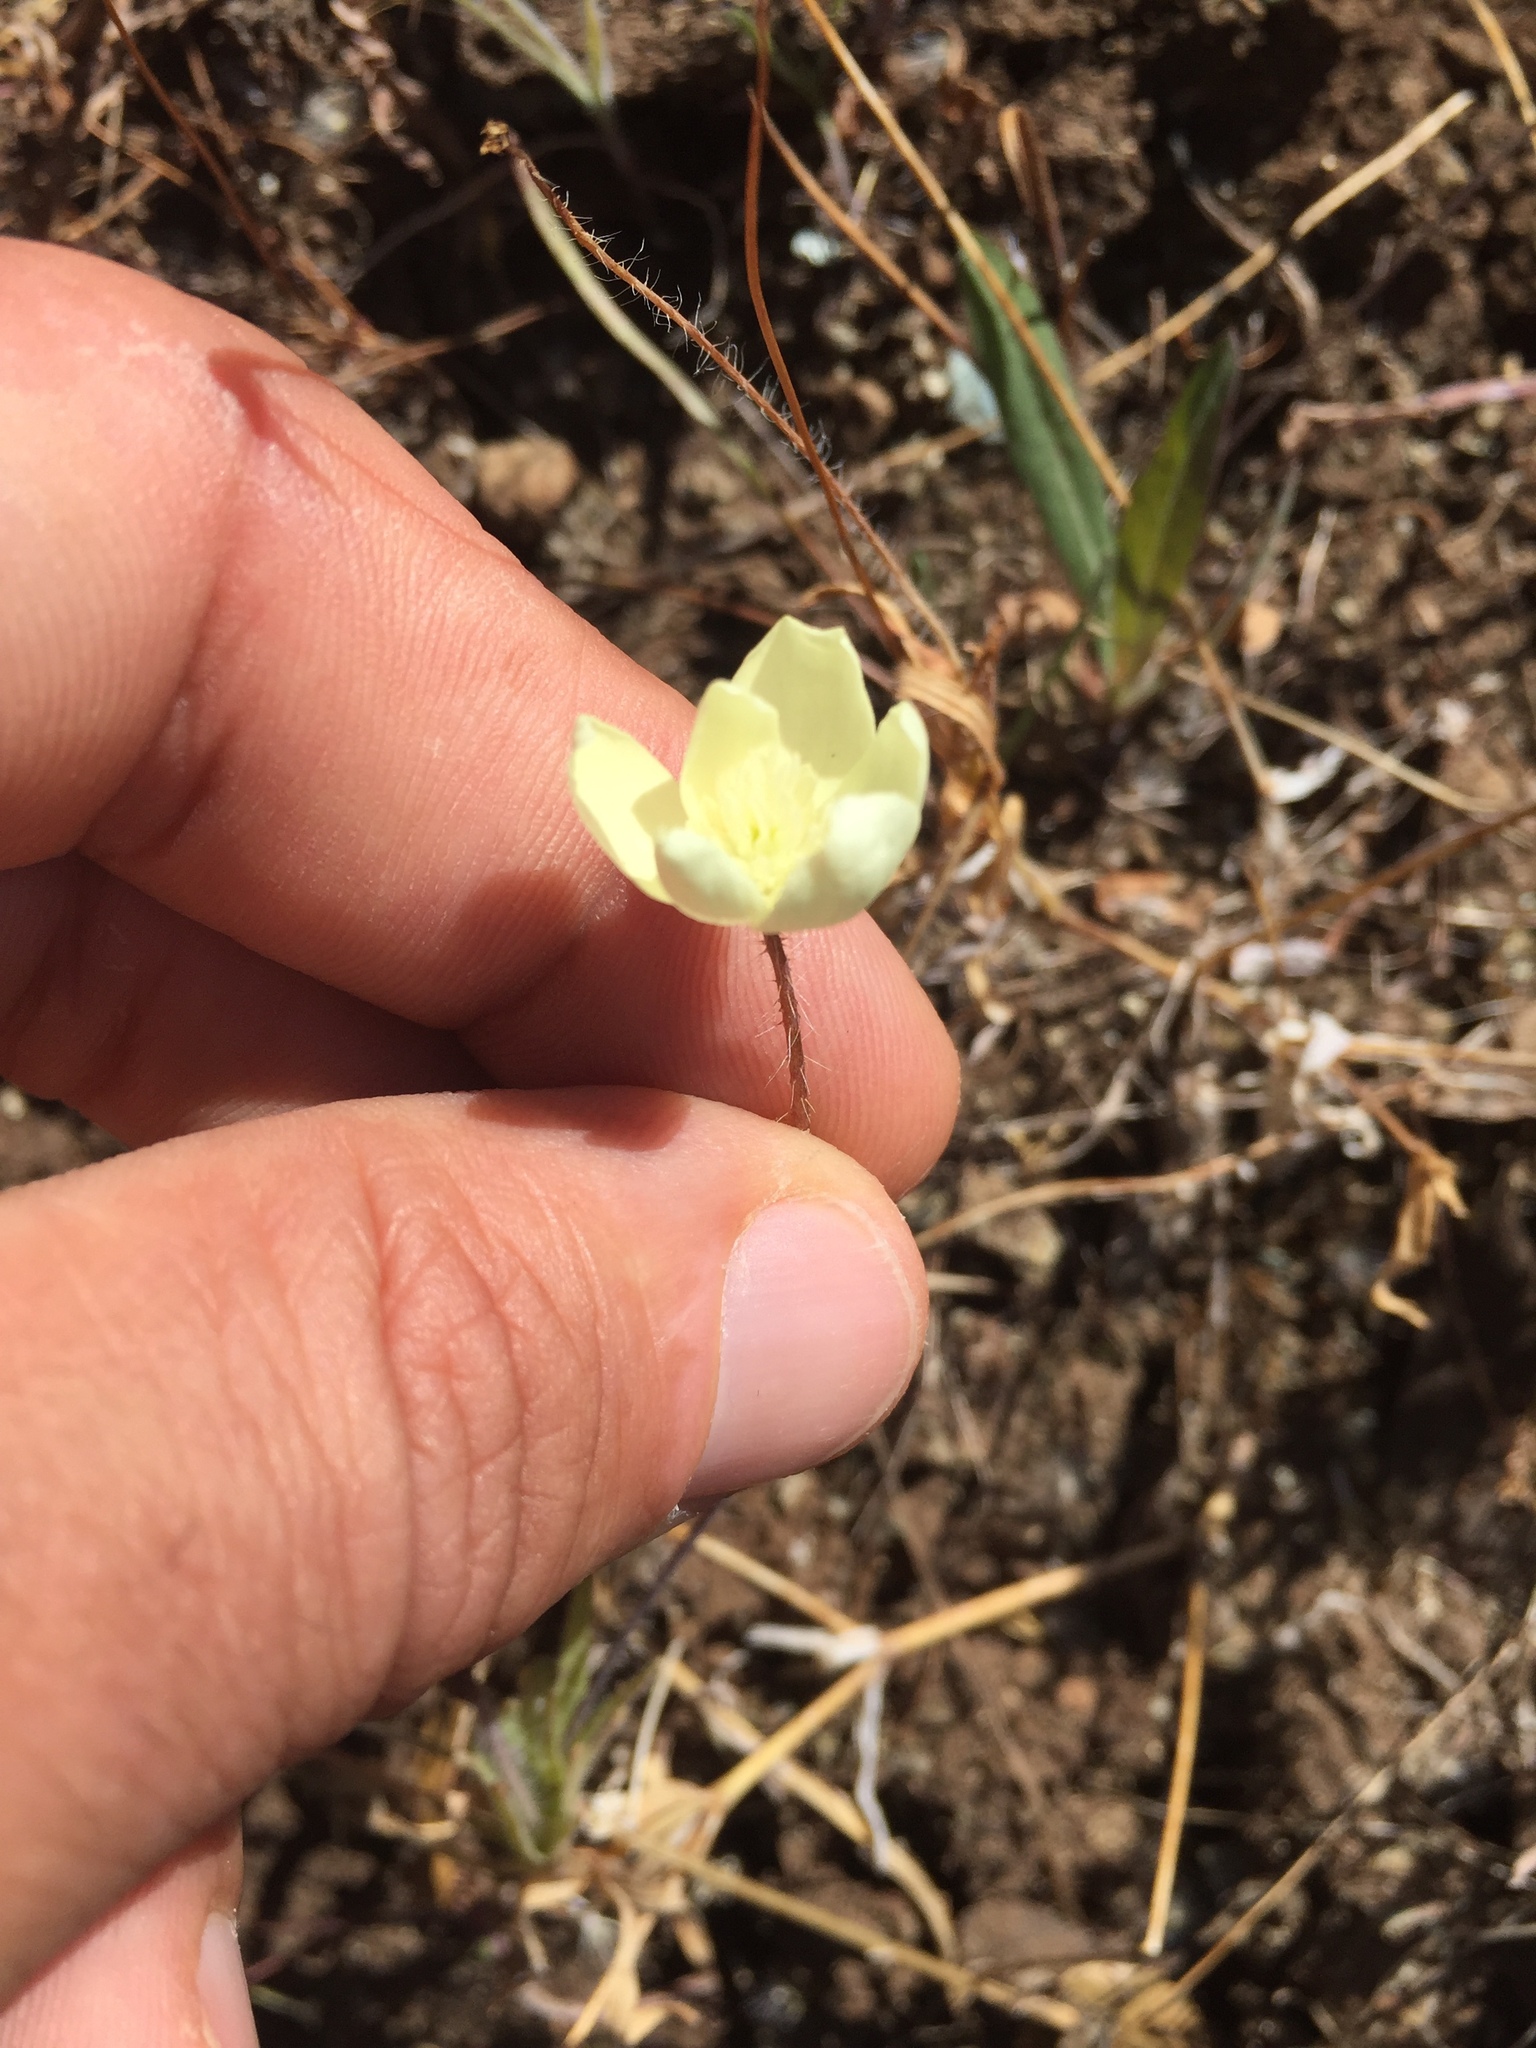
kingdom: Plantae
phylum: Tracheophyta
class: Magnoliopsida
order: Ranunculales
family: Papaveraceae
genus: Platystemon
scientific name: Platystemon californicus
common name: Cream-cups
